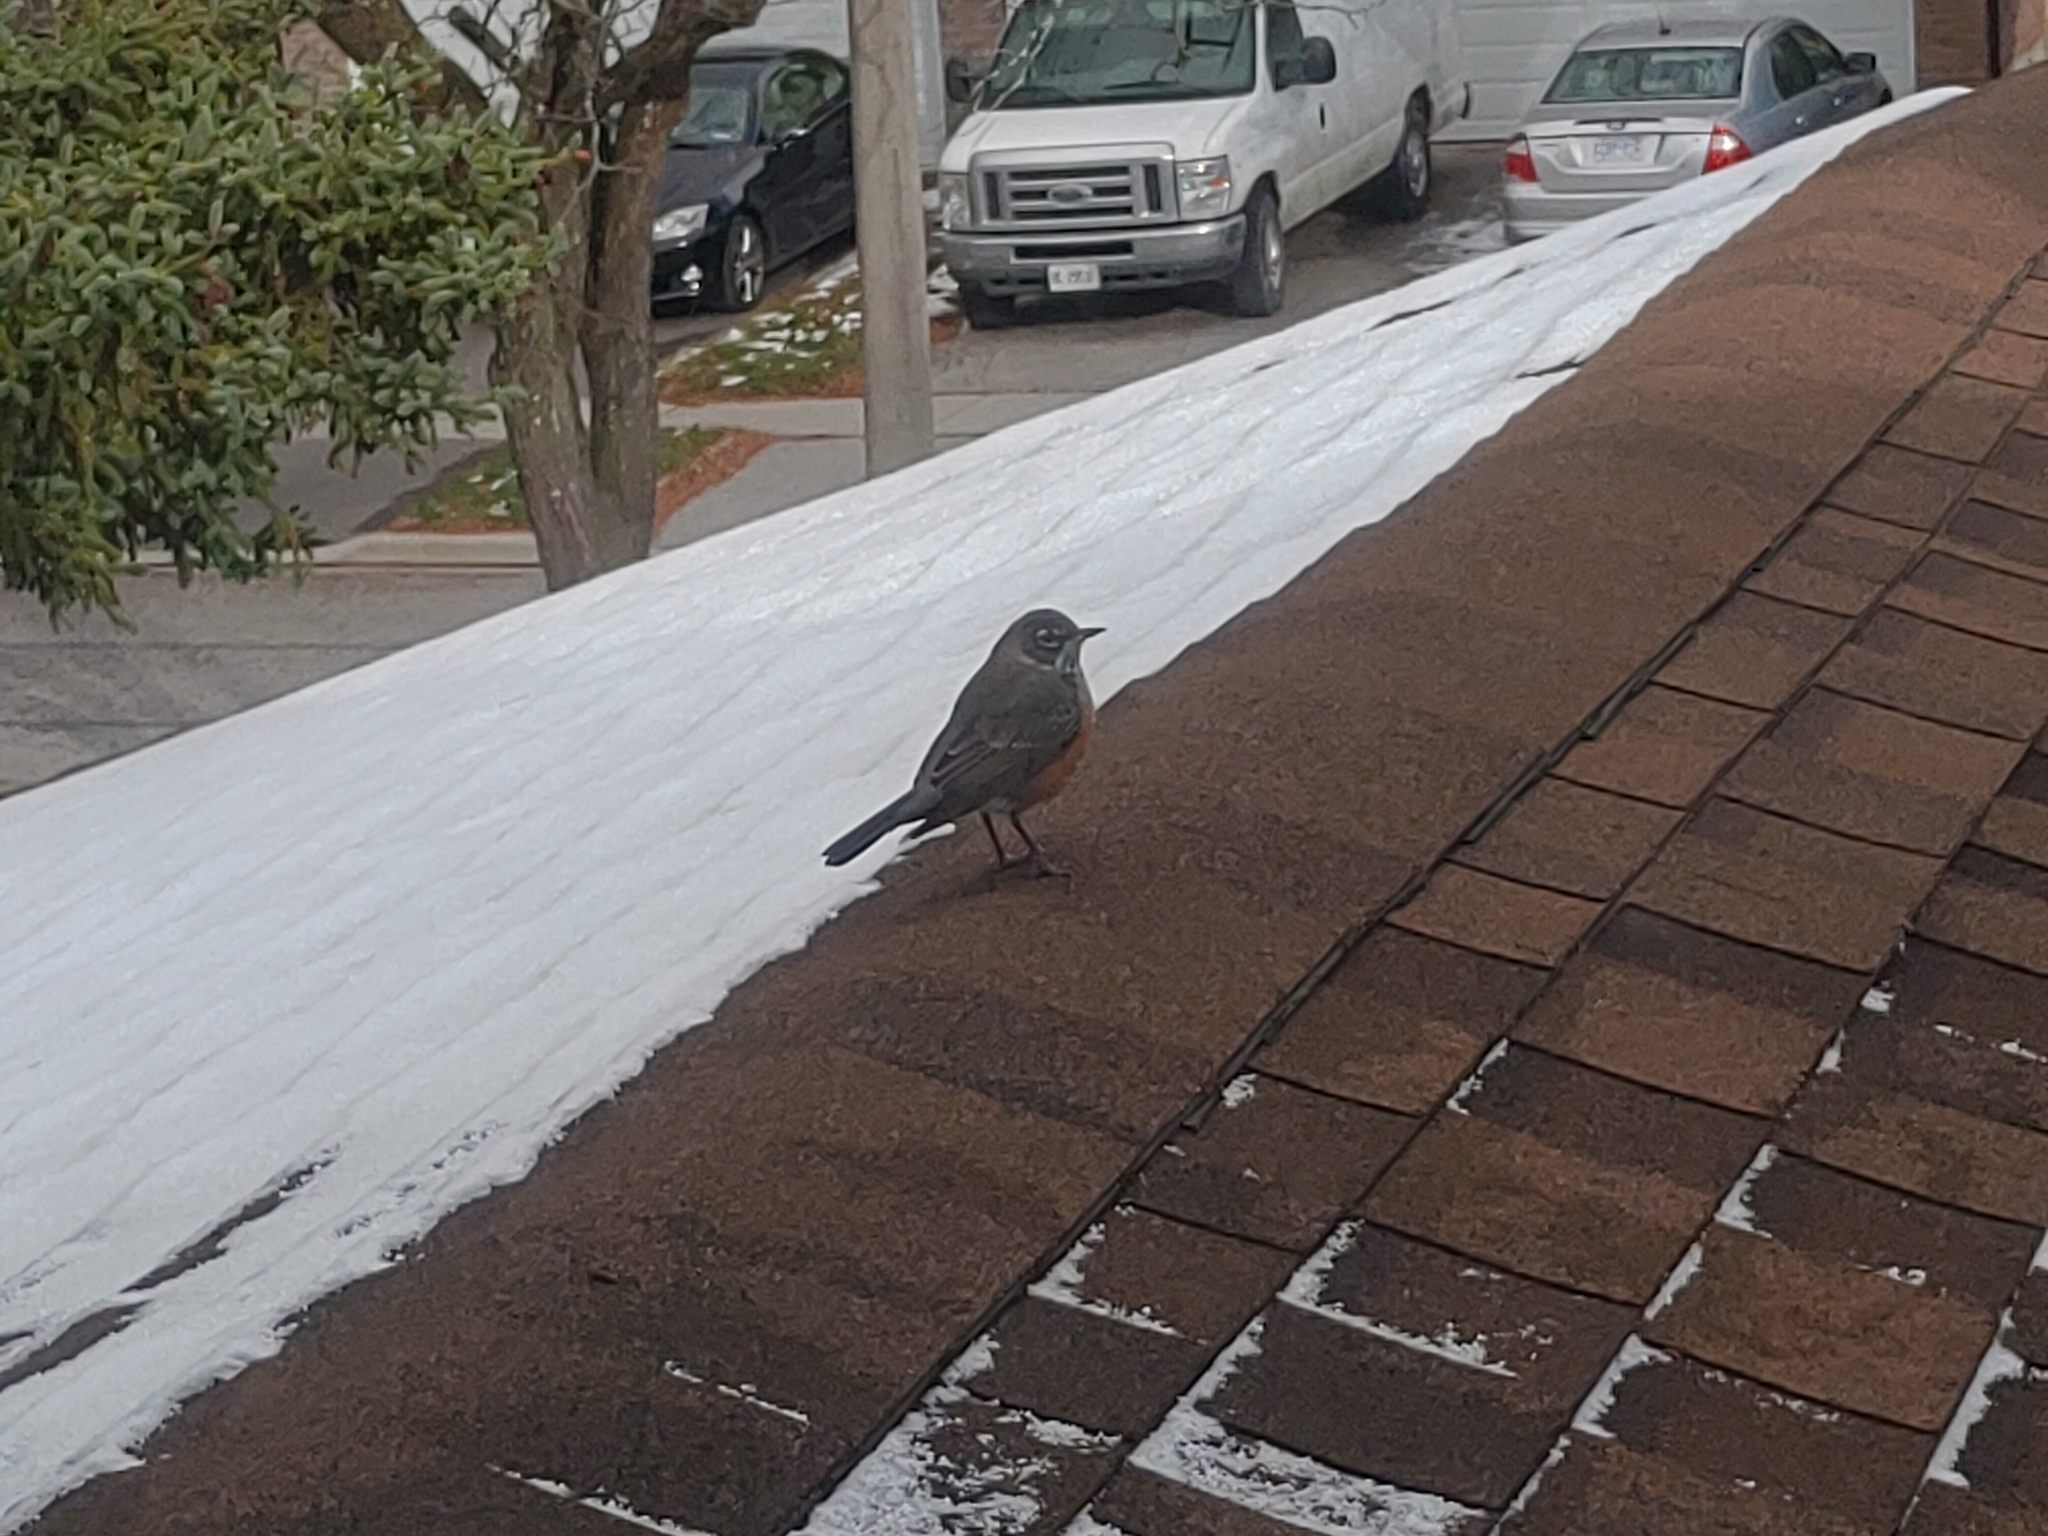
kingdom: Animalia
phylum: Chordata
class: Aves
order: Passeriformes
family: Turdidae
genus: Turdus
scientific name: Turdus migratorius
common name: American robin
